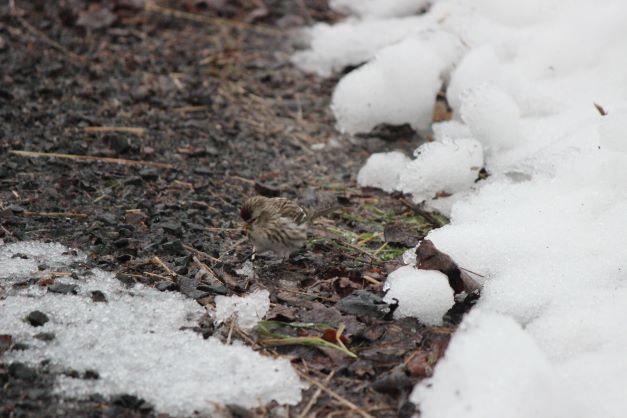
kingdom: Animalia
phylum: Chordata
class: Aves
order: Passeriformes
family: Fringillidae
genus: Acanthis
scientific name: Acanthis flammea
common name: Common redpoll
